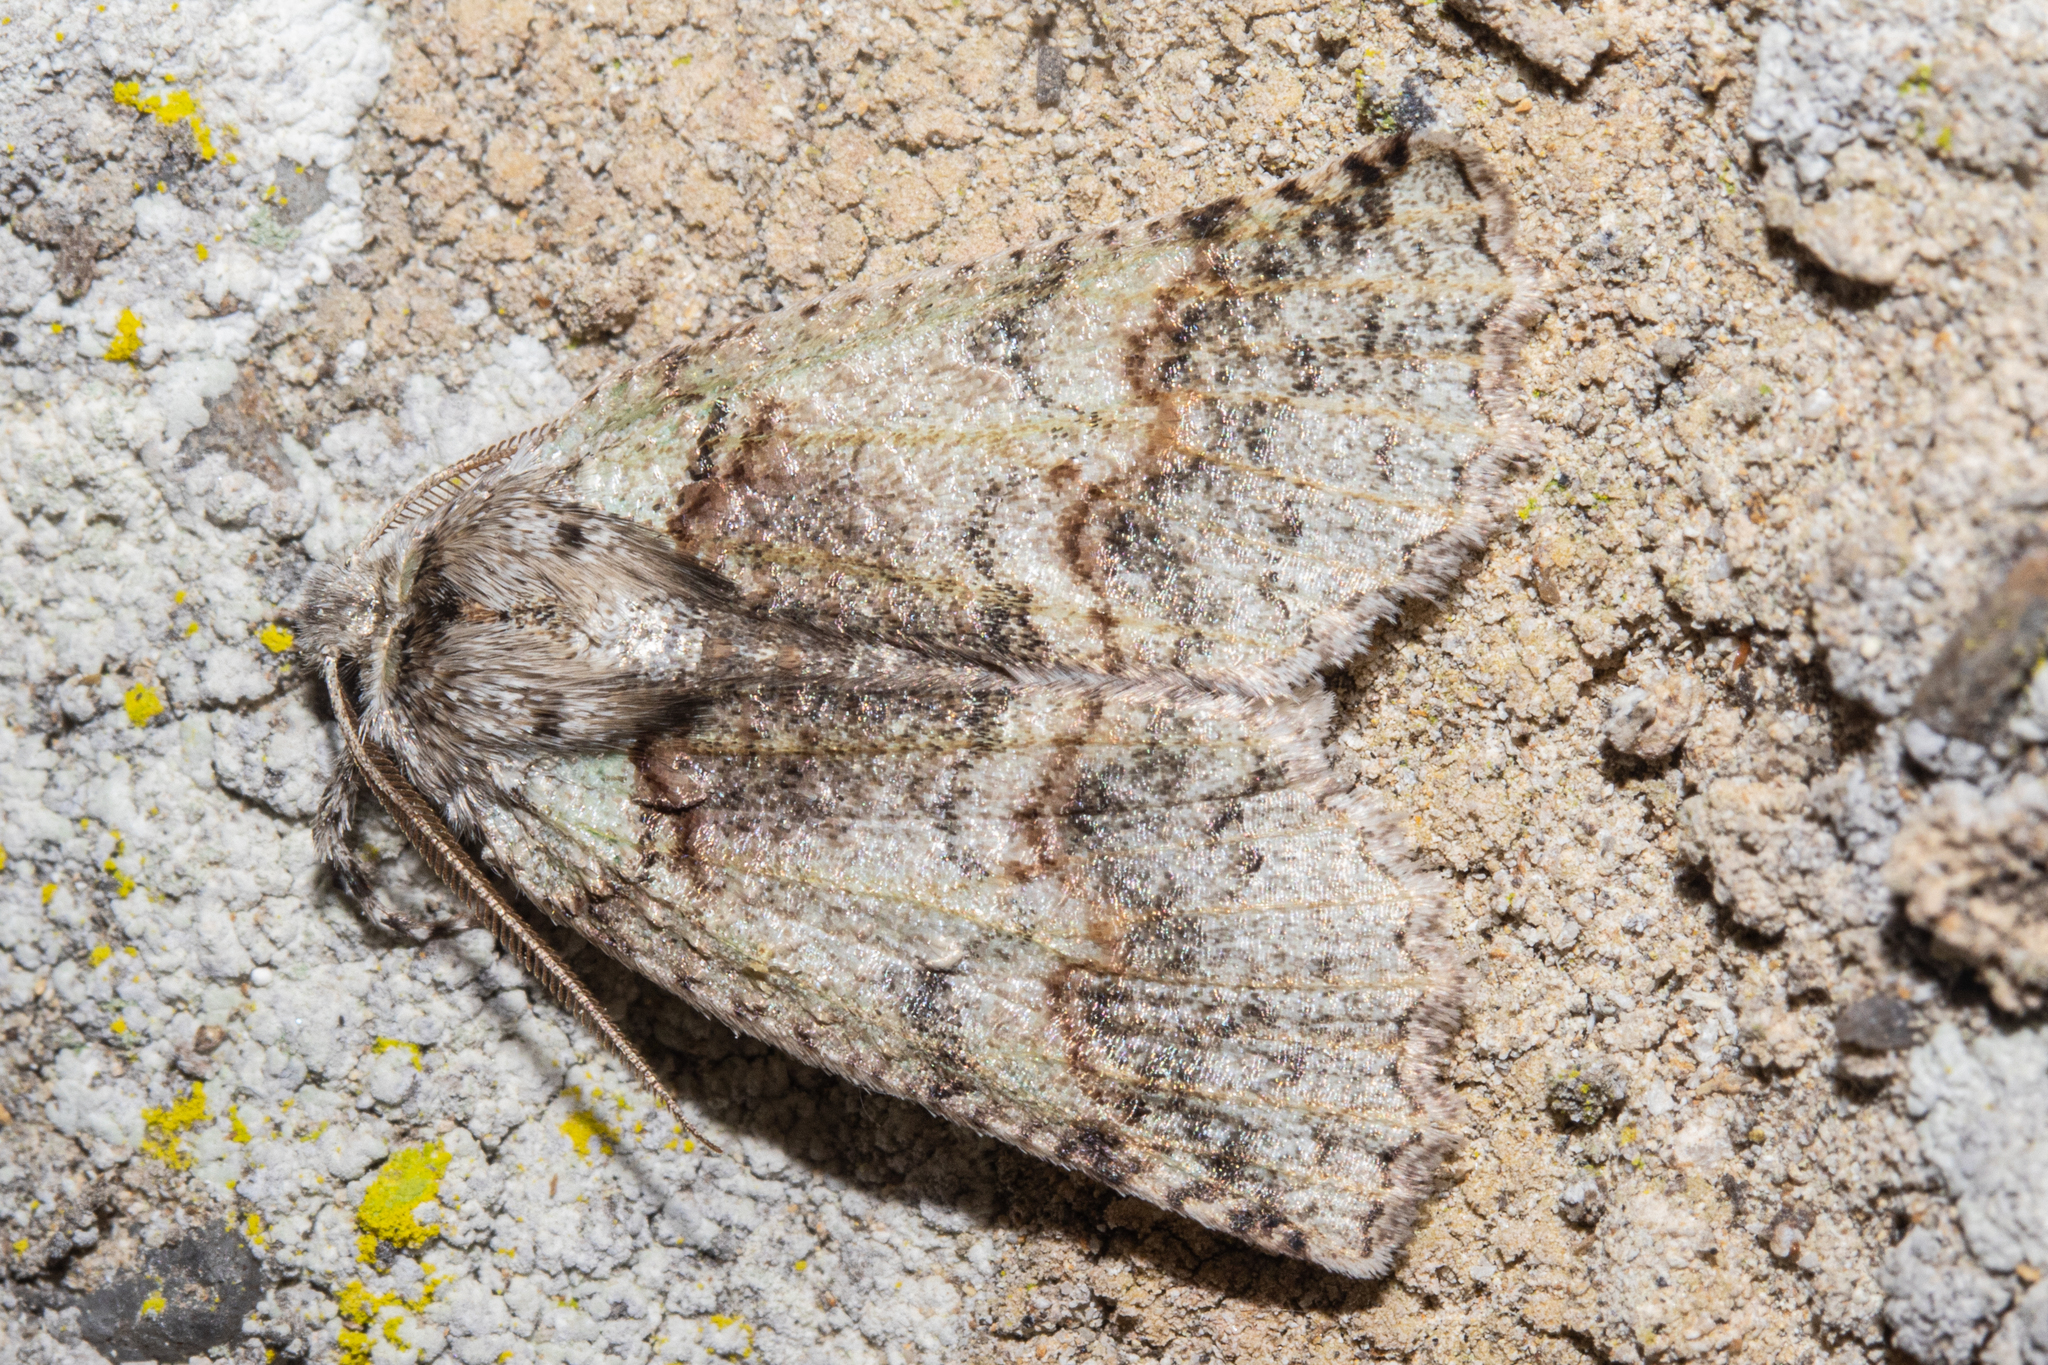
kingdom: Animalia
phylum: Arthropoda
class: Insecta
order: Lepidoptera
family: Geometridae
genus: Declana
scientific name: Declana floccosa
